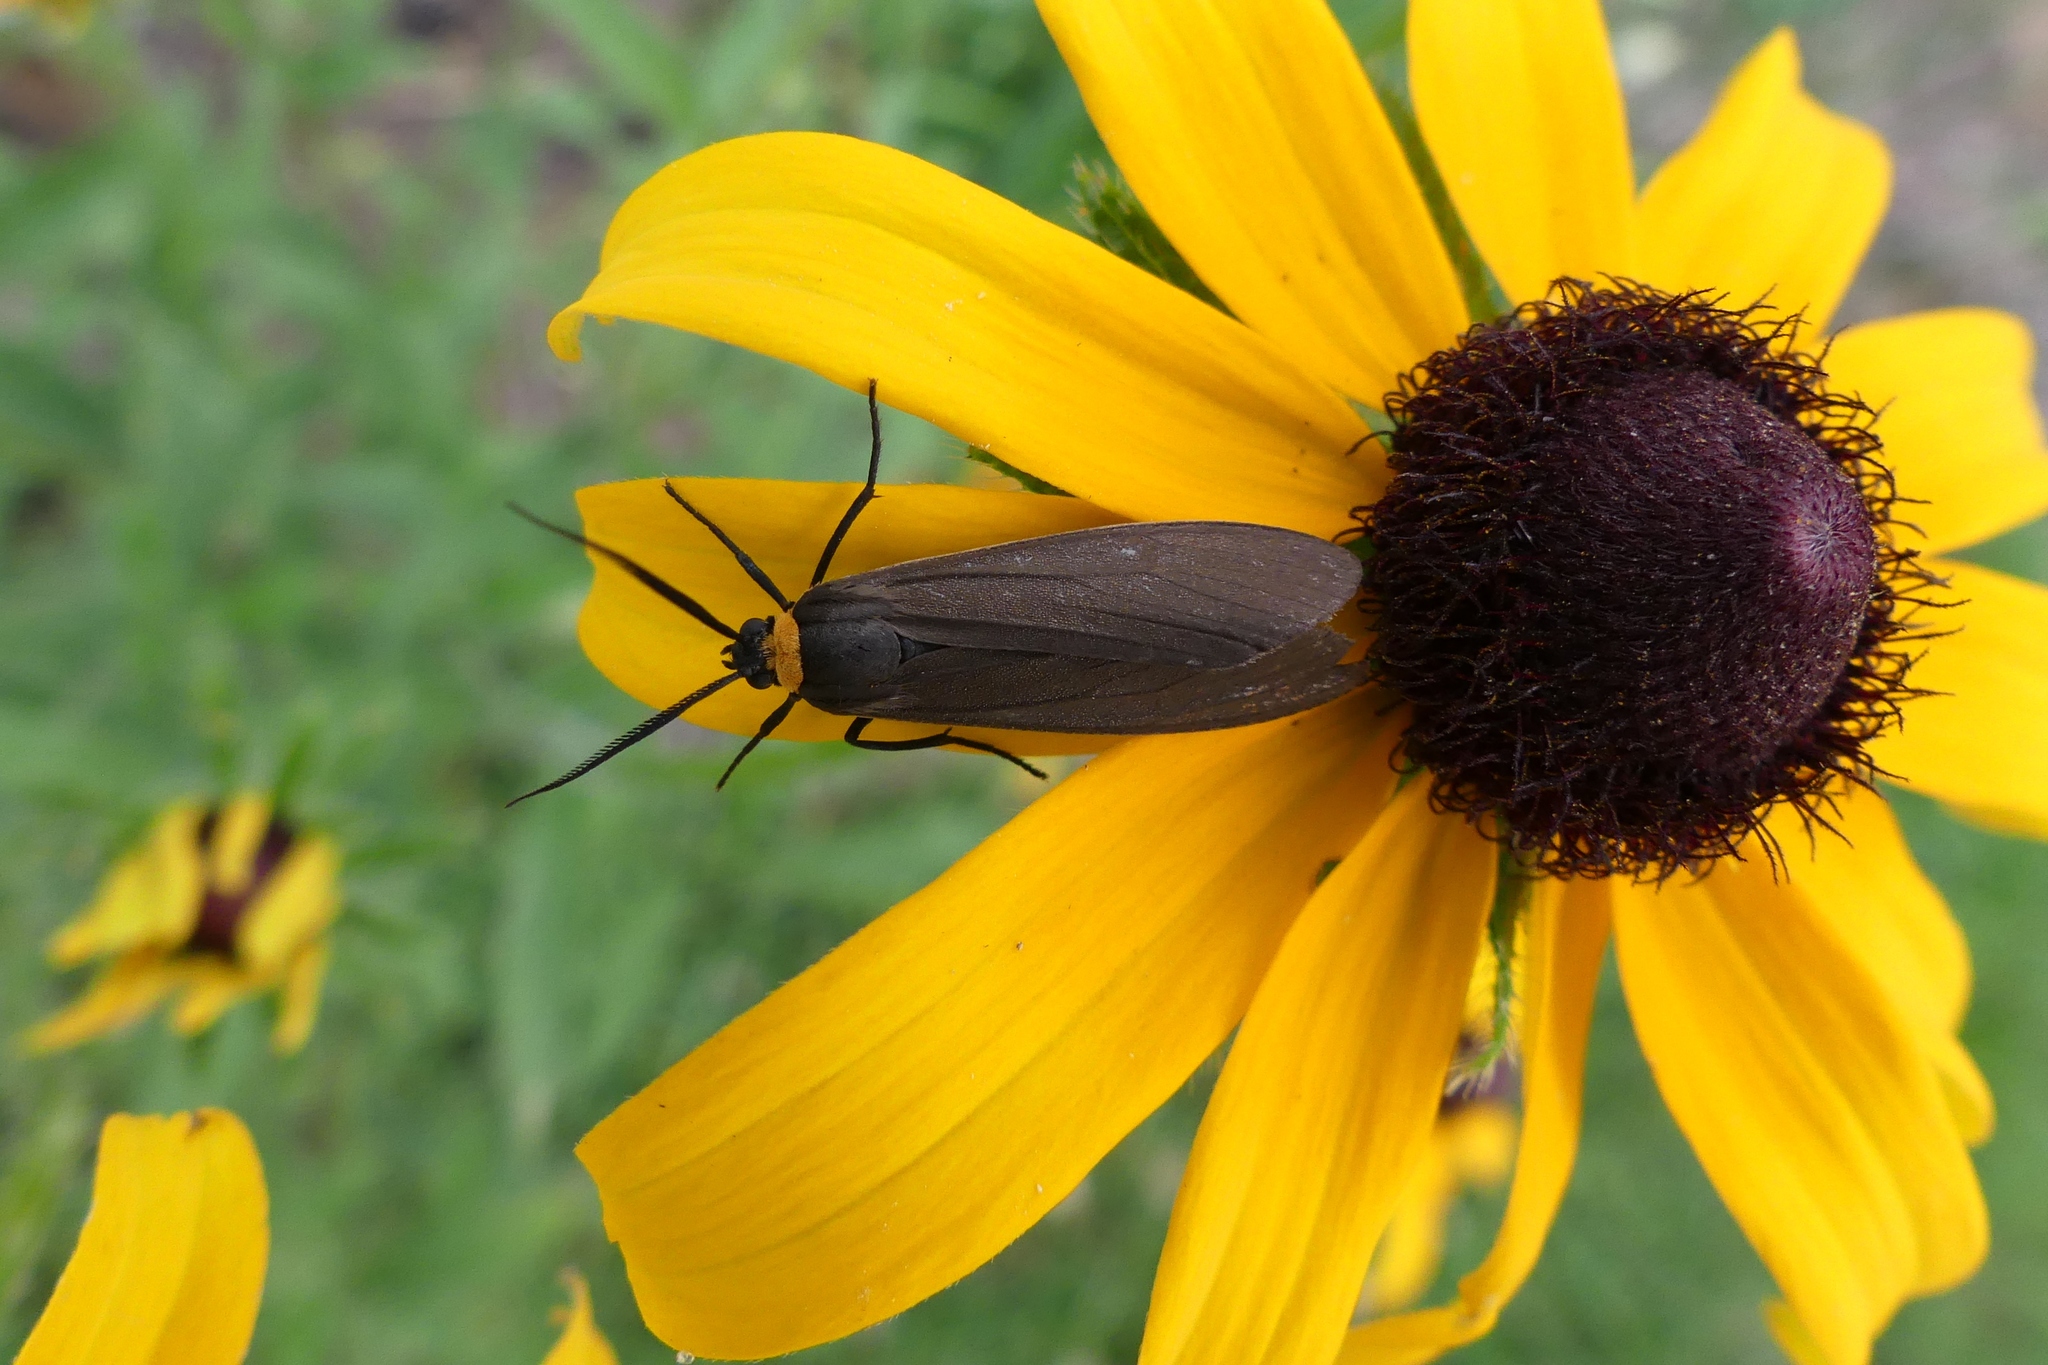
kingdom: Animalia
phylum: Arthropoda
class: Insecta
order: Lepidoptera
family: Erebidae
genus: Cisseps
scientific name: Cisseps fulvicollis
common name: Yellow-collared scape moth
